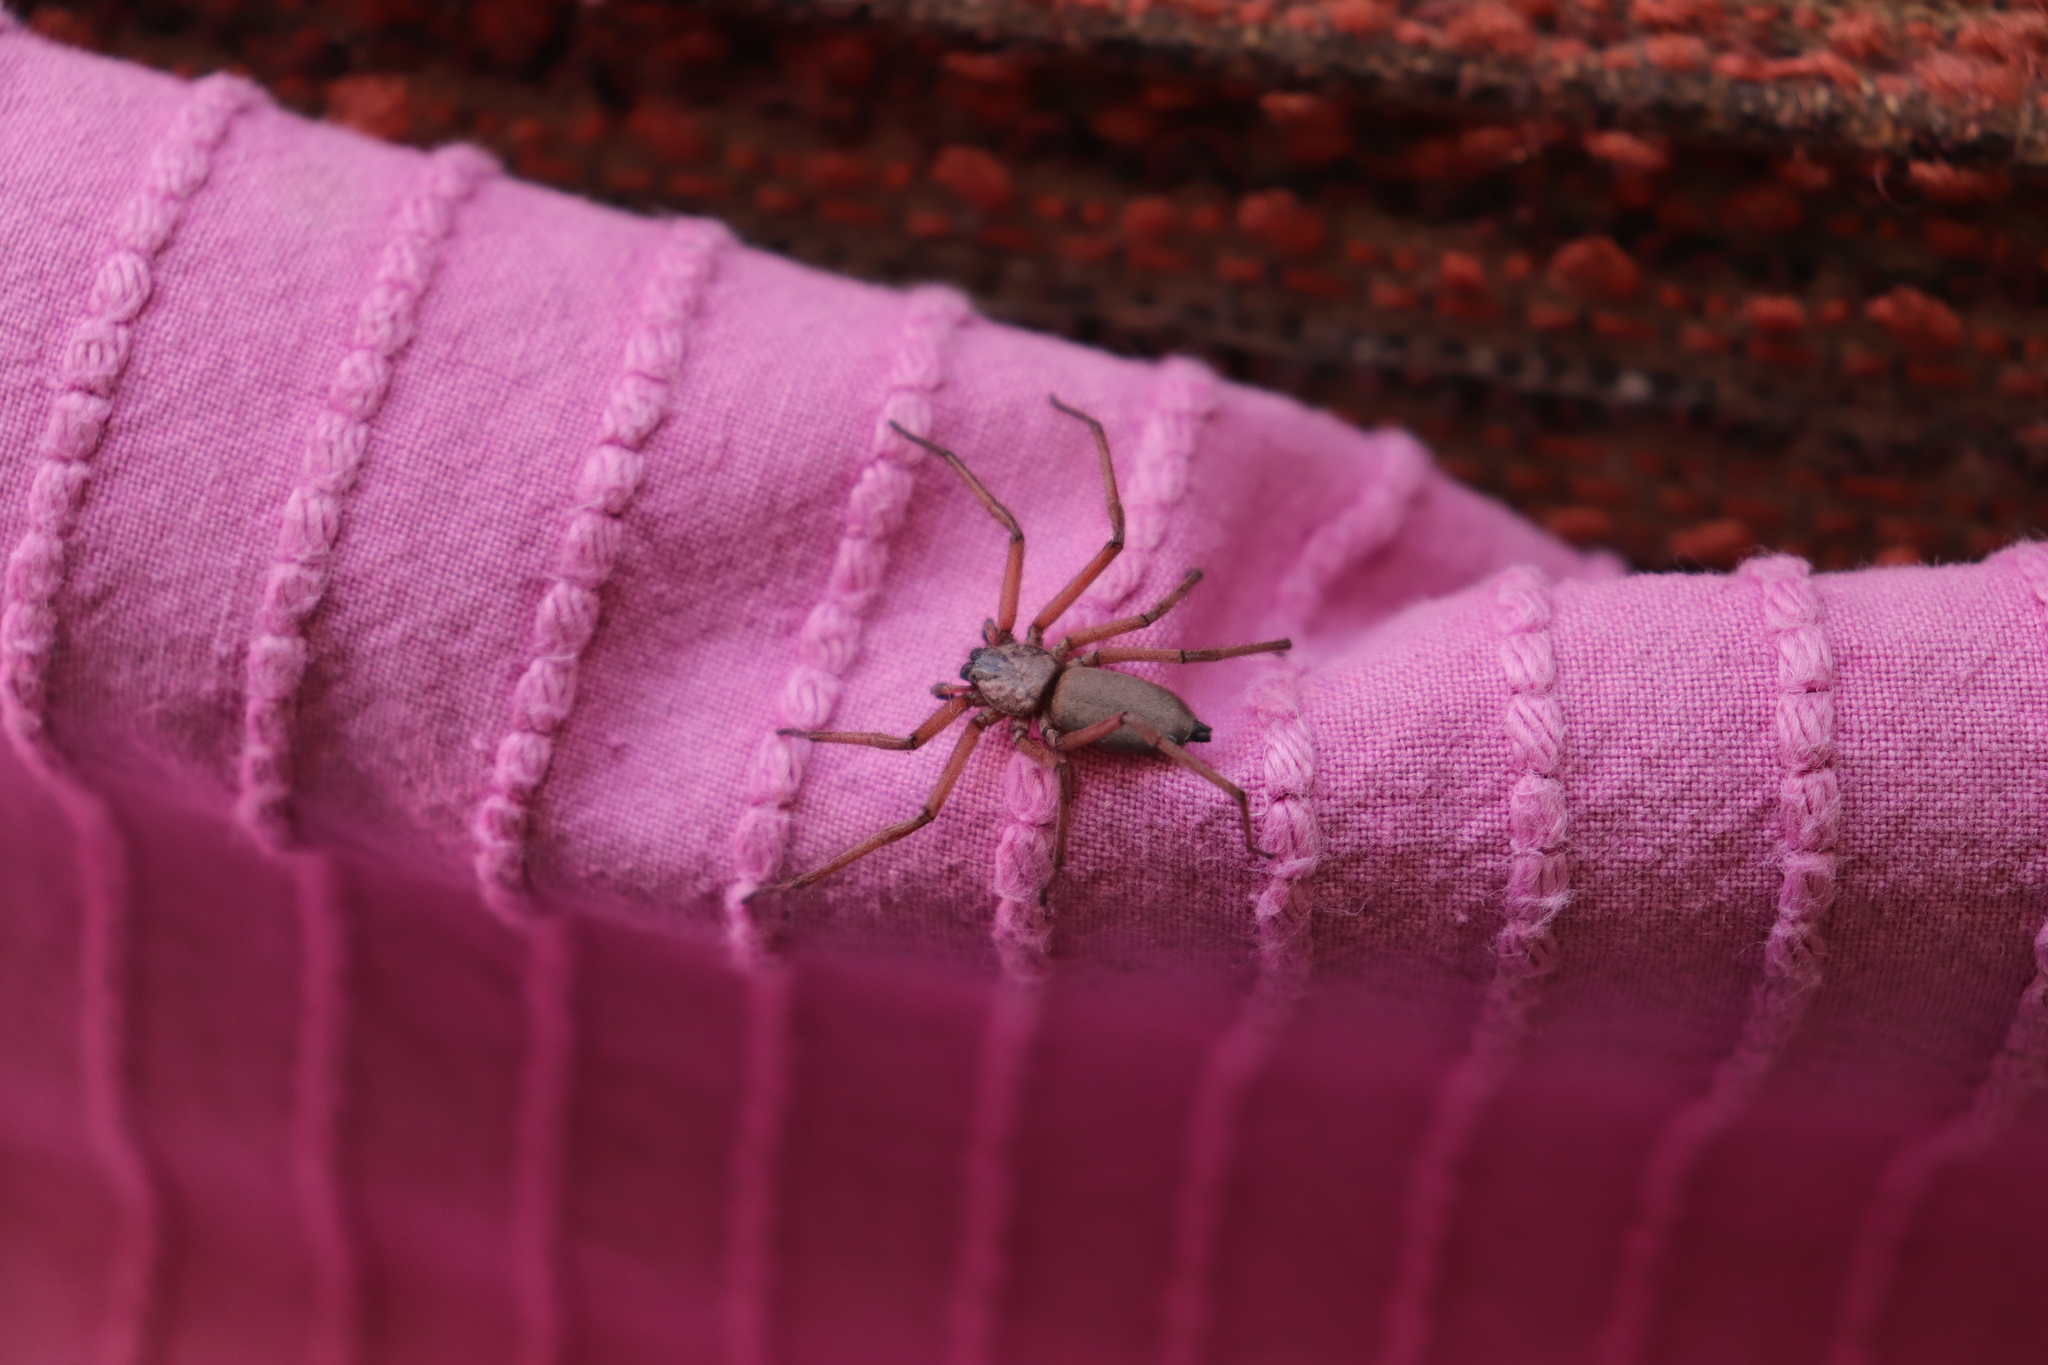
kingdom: Animalia
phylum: Arthropoda
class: Arachnida
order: Araneae
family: Trochanteriidae
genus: Hemicloea
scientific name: Hemicloea rogenhoferi
